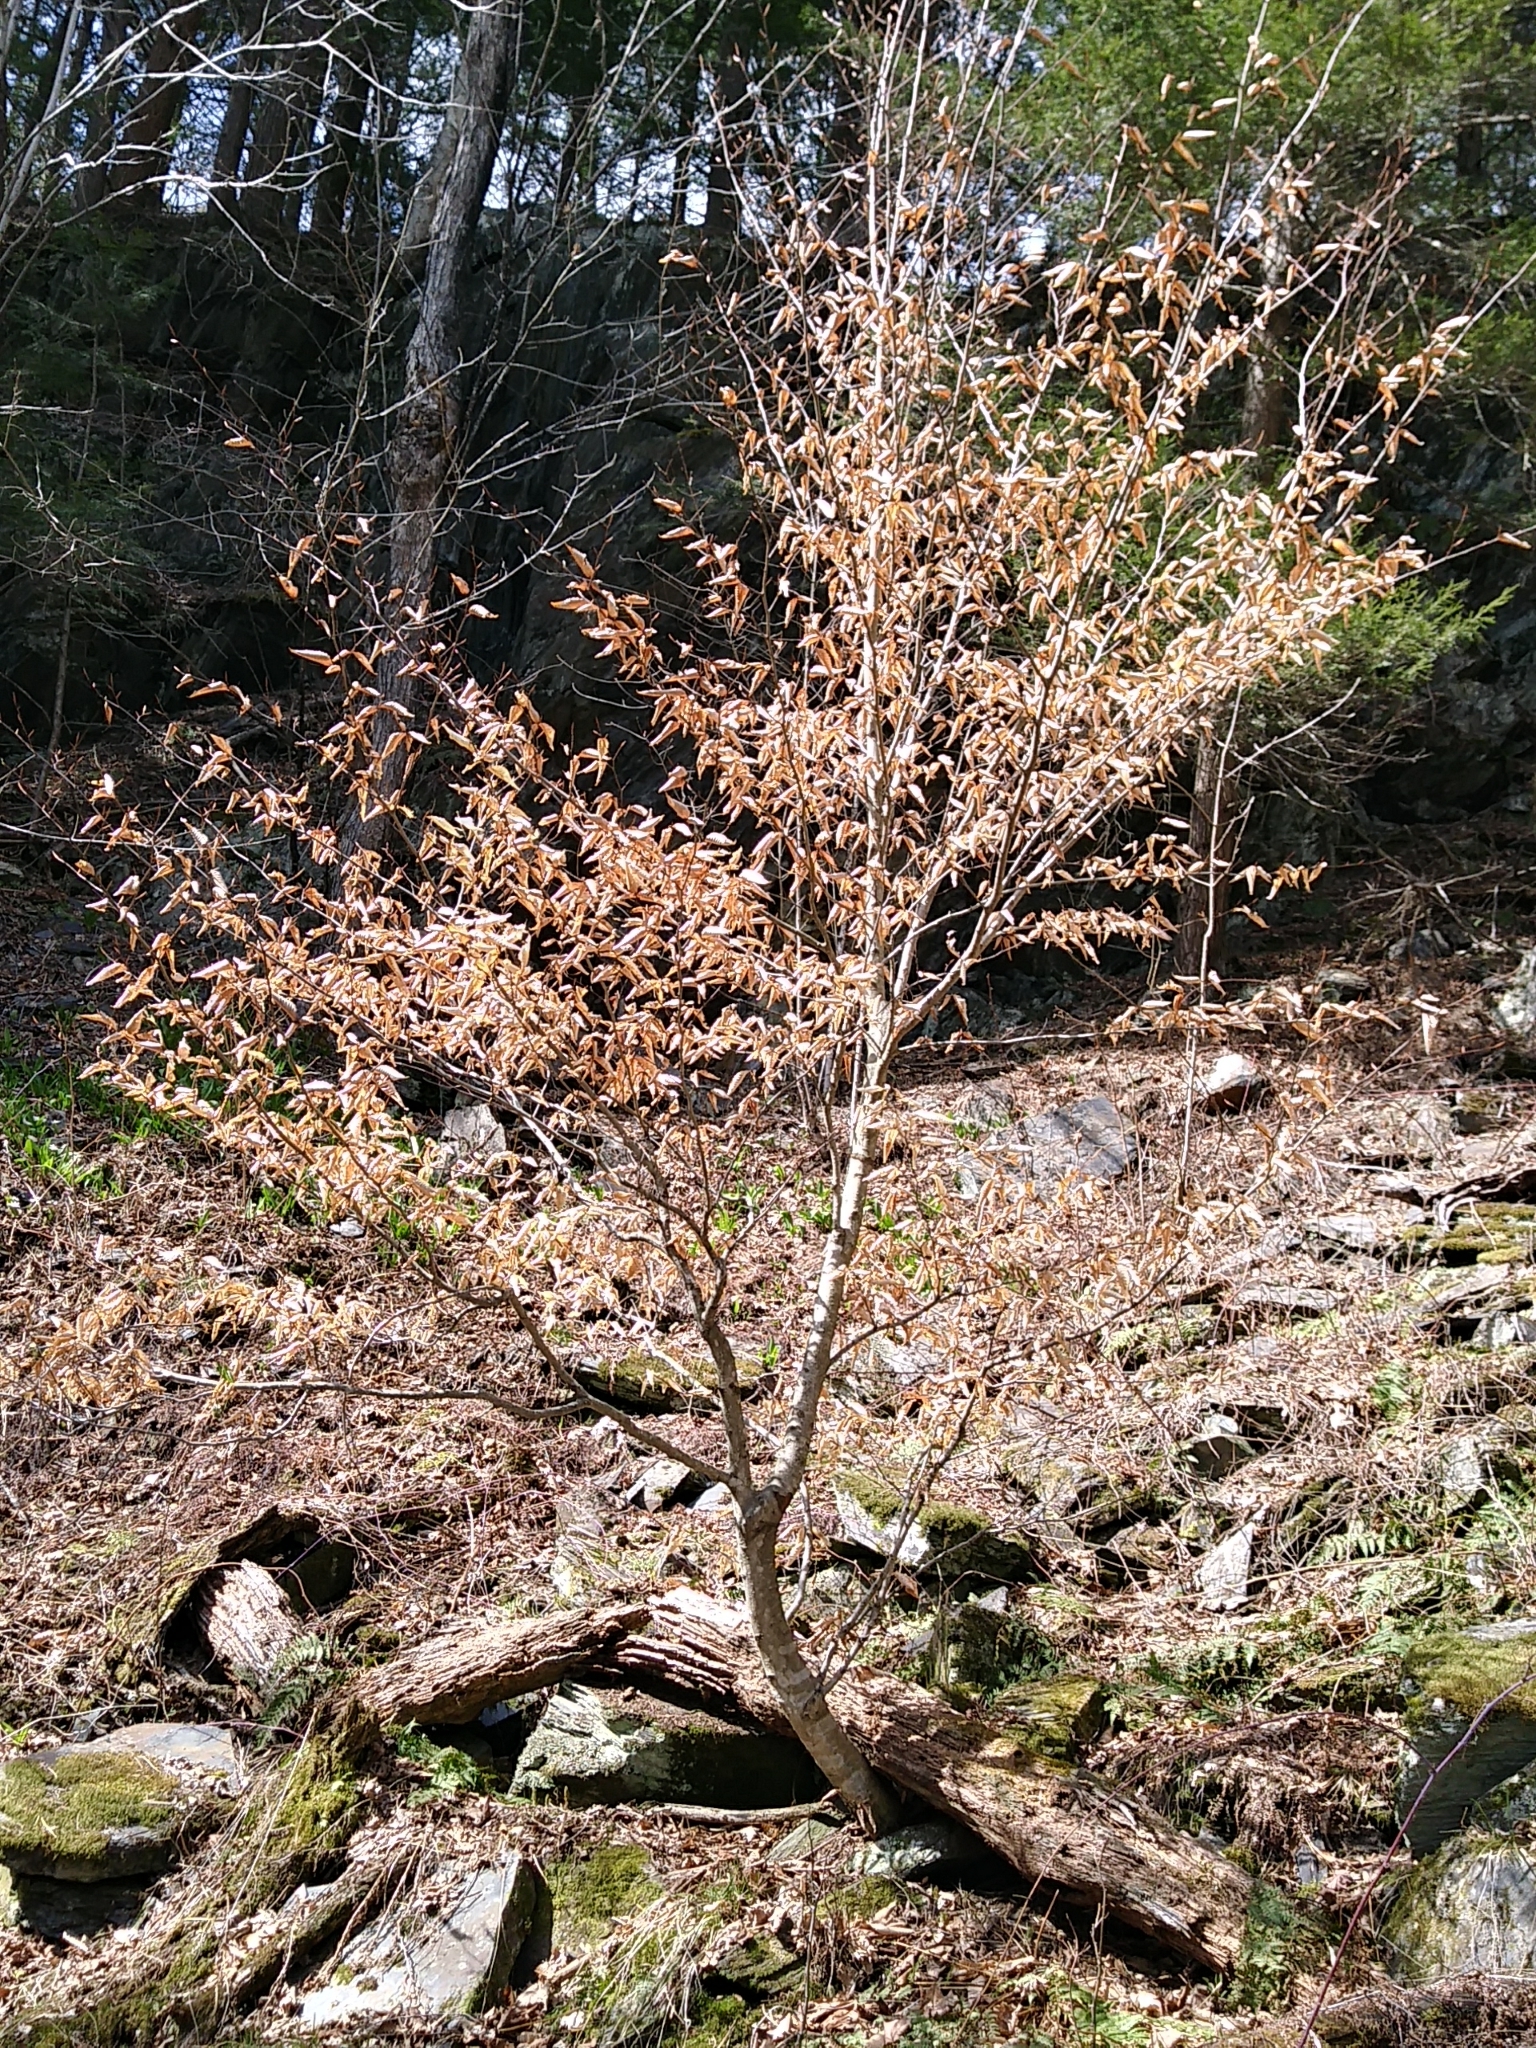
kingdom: Plantae
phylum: Tracheophyta
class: Magnoliopsida
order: Fagales
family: Fagaceae
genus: Fagus
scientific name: Fagus grandifolia
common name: American beech
